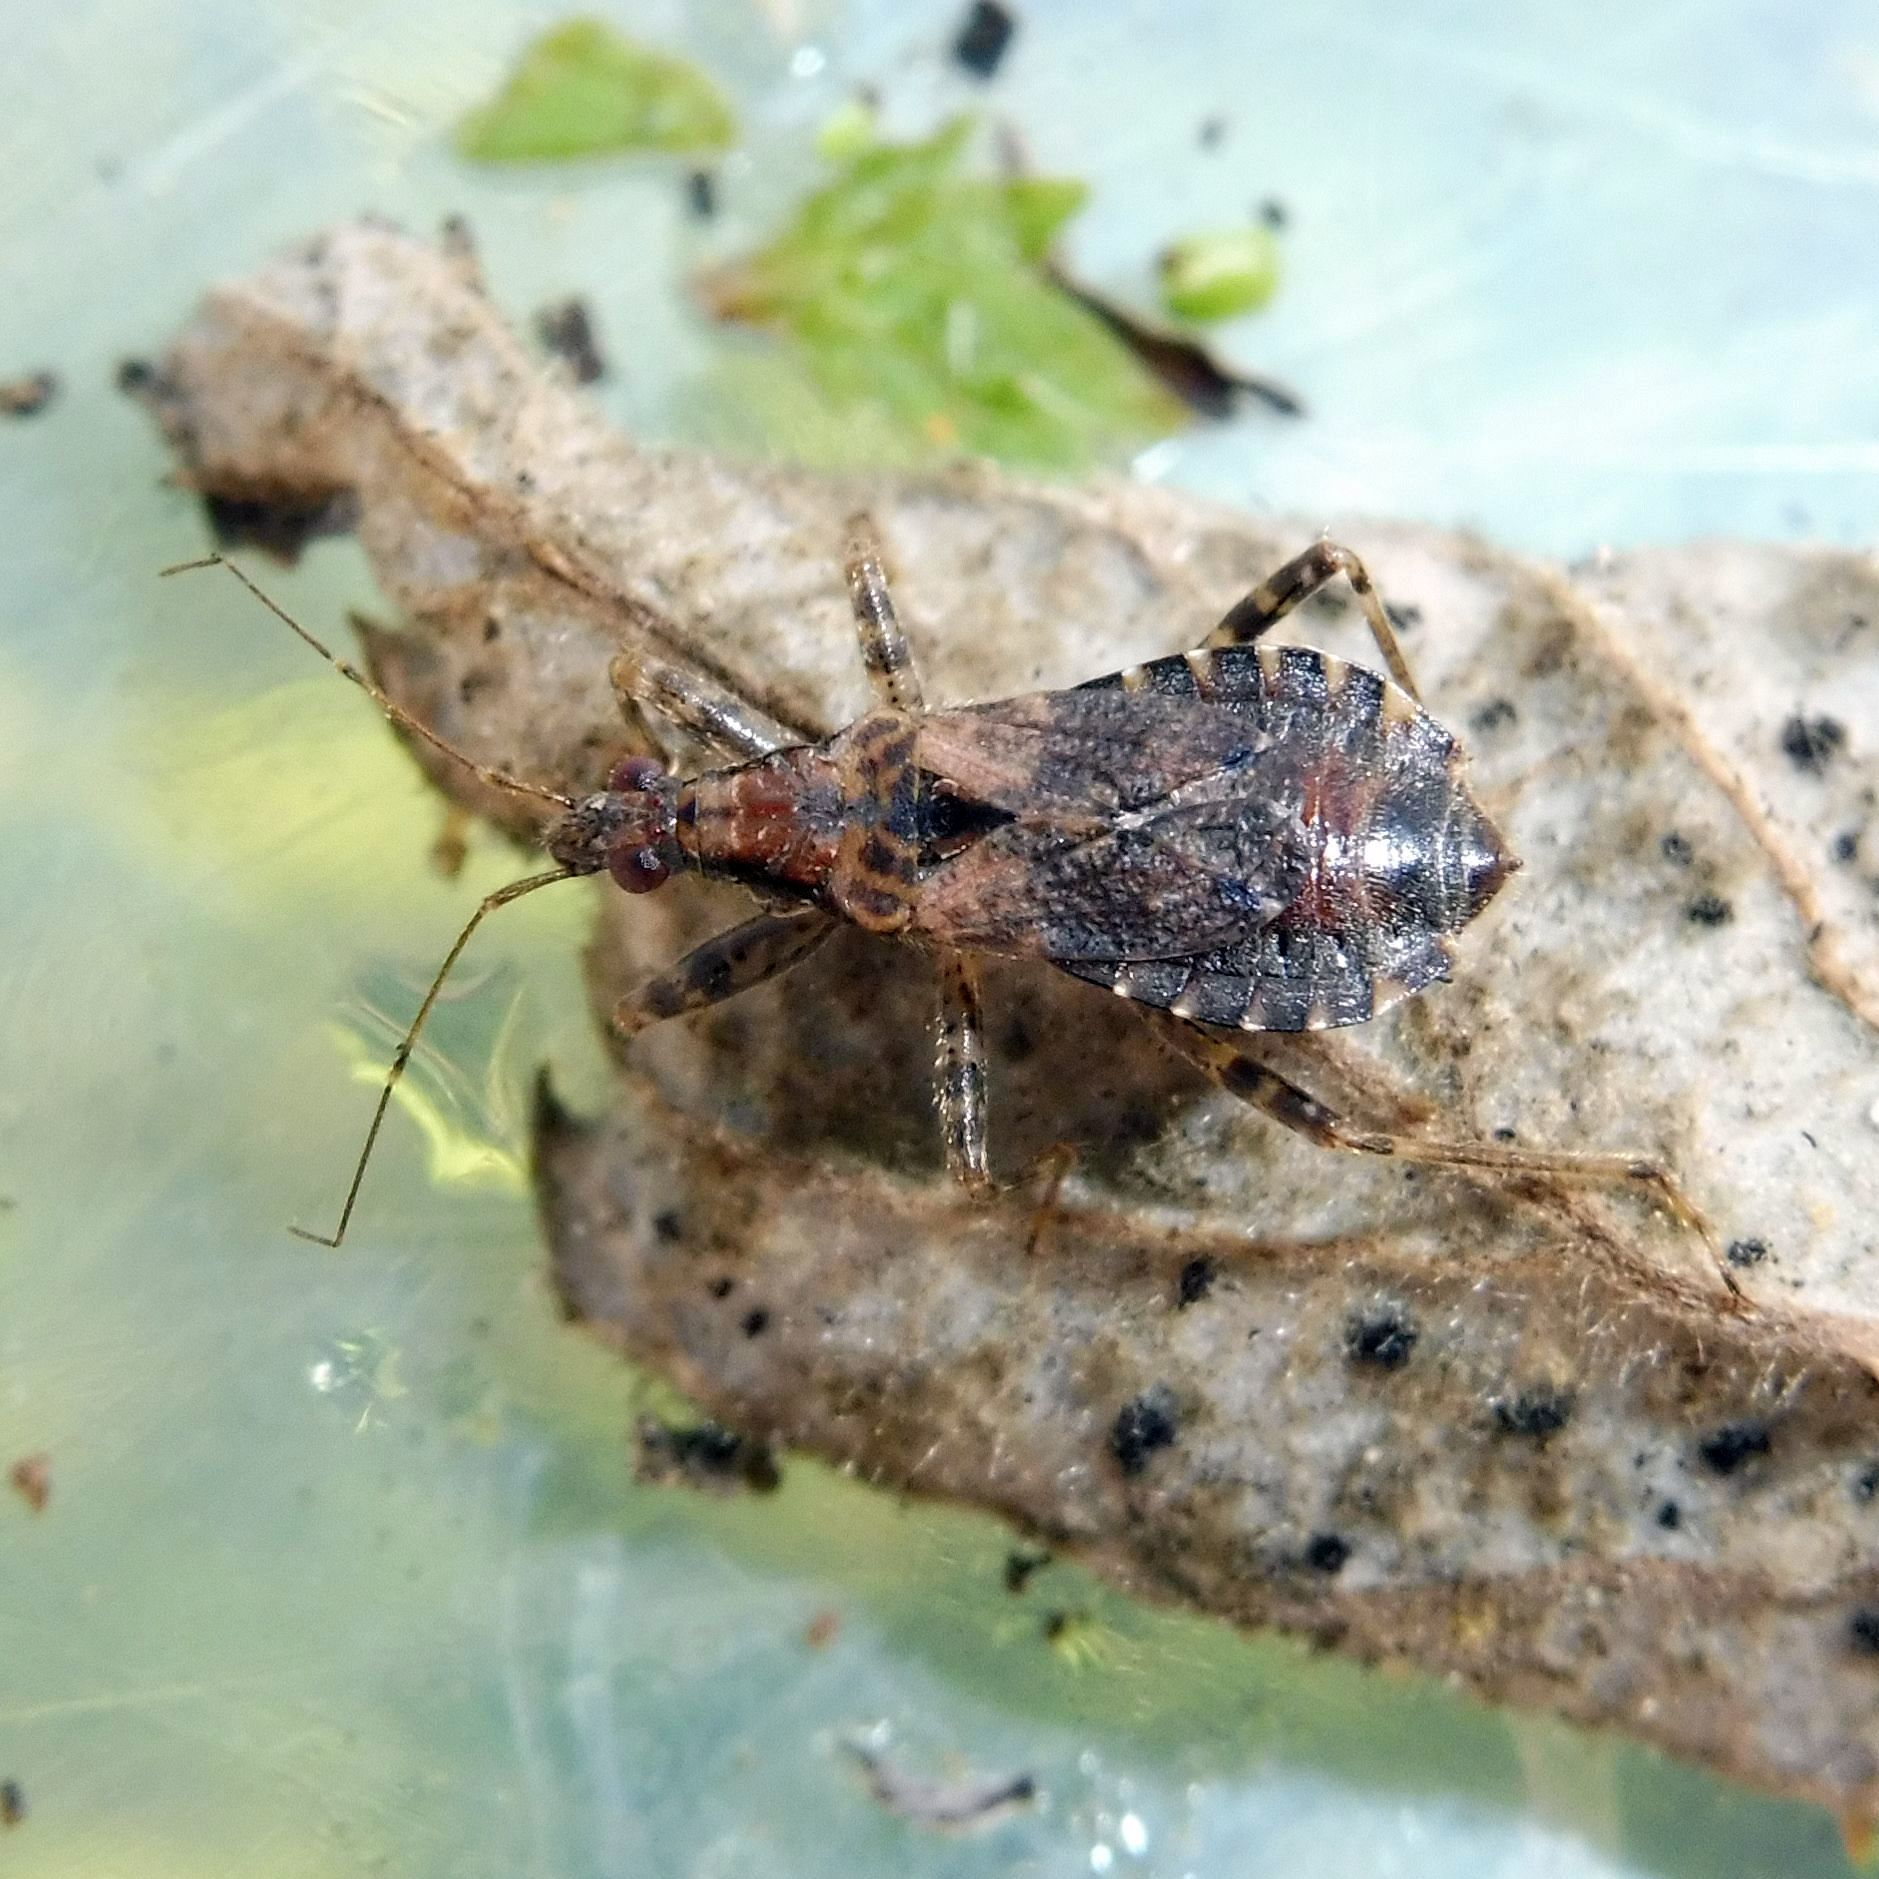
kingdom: Animalia
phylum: Arthropoda
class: Insecta
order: Hemiptera
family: Nabidae
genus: Himacerus
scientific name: Himacerus mirmicoides
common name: Ant damsel bug
